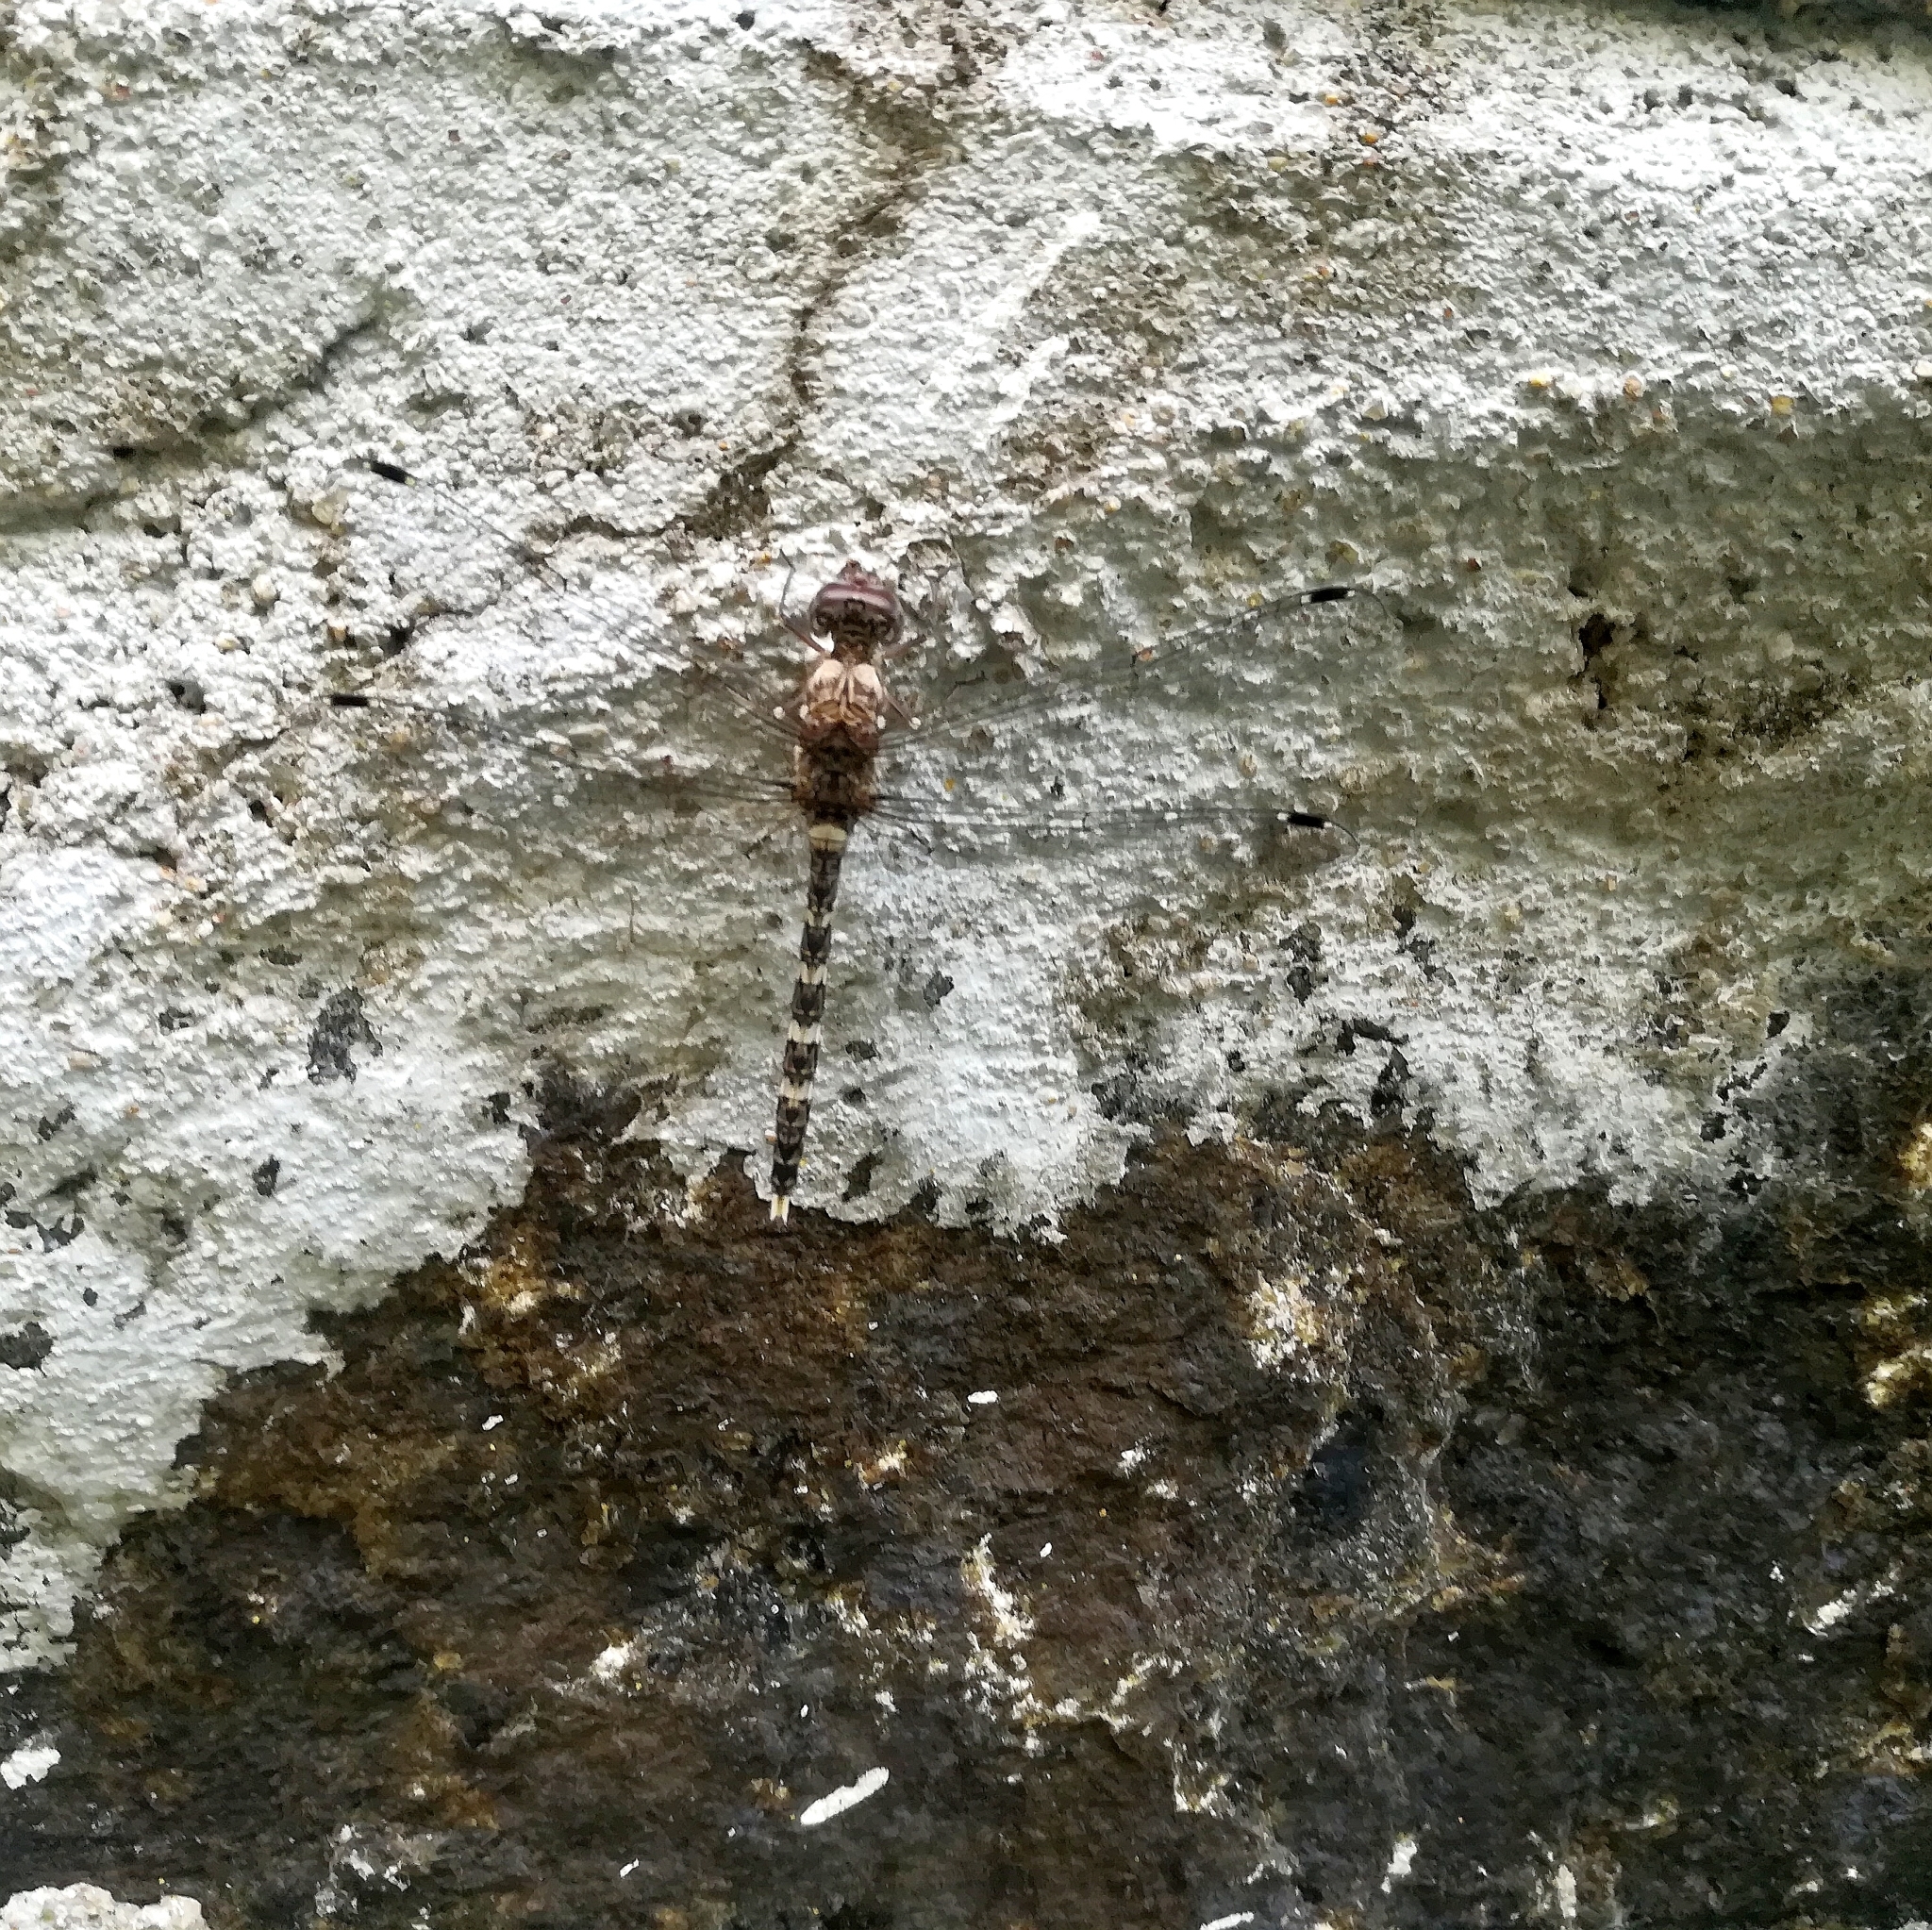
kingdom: Animalia
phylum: Arthropoda
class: Insecta
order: Odonata
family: Libellulidae
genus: Bradinopyga
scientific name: Bradinopyga geminata
